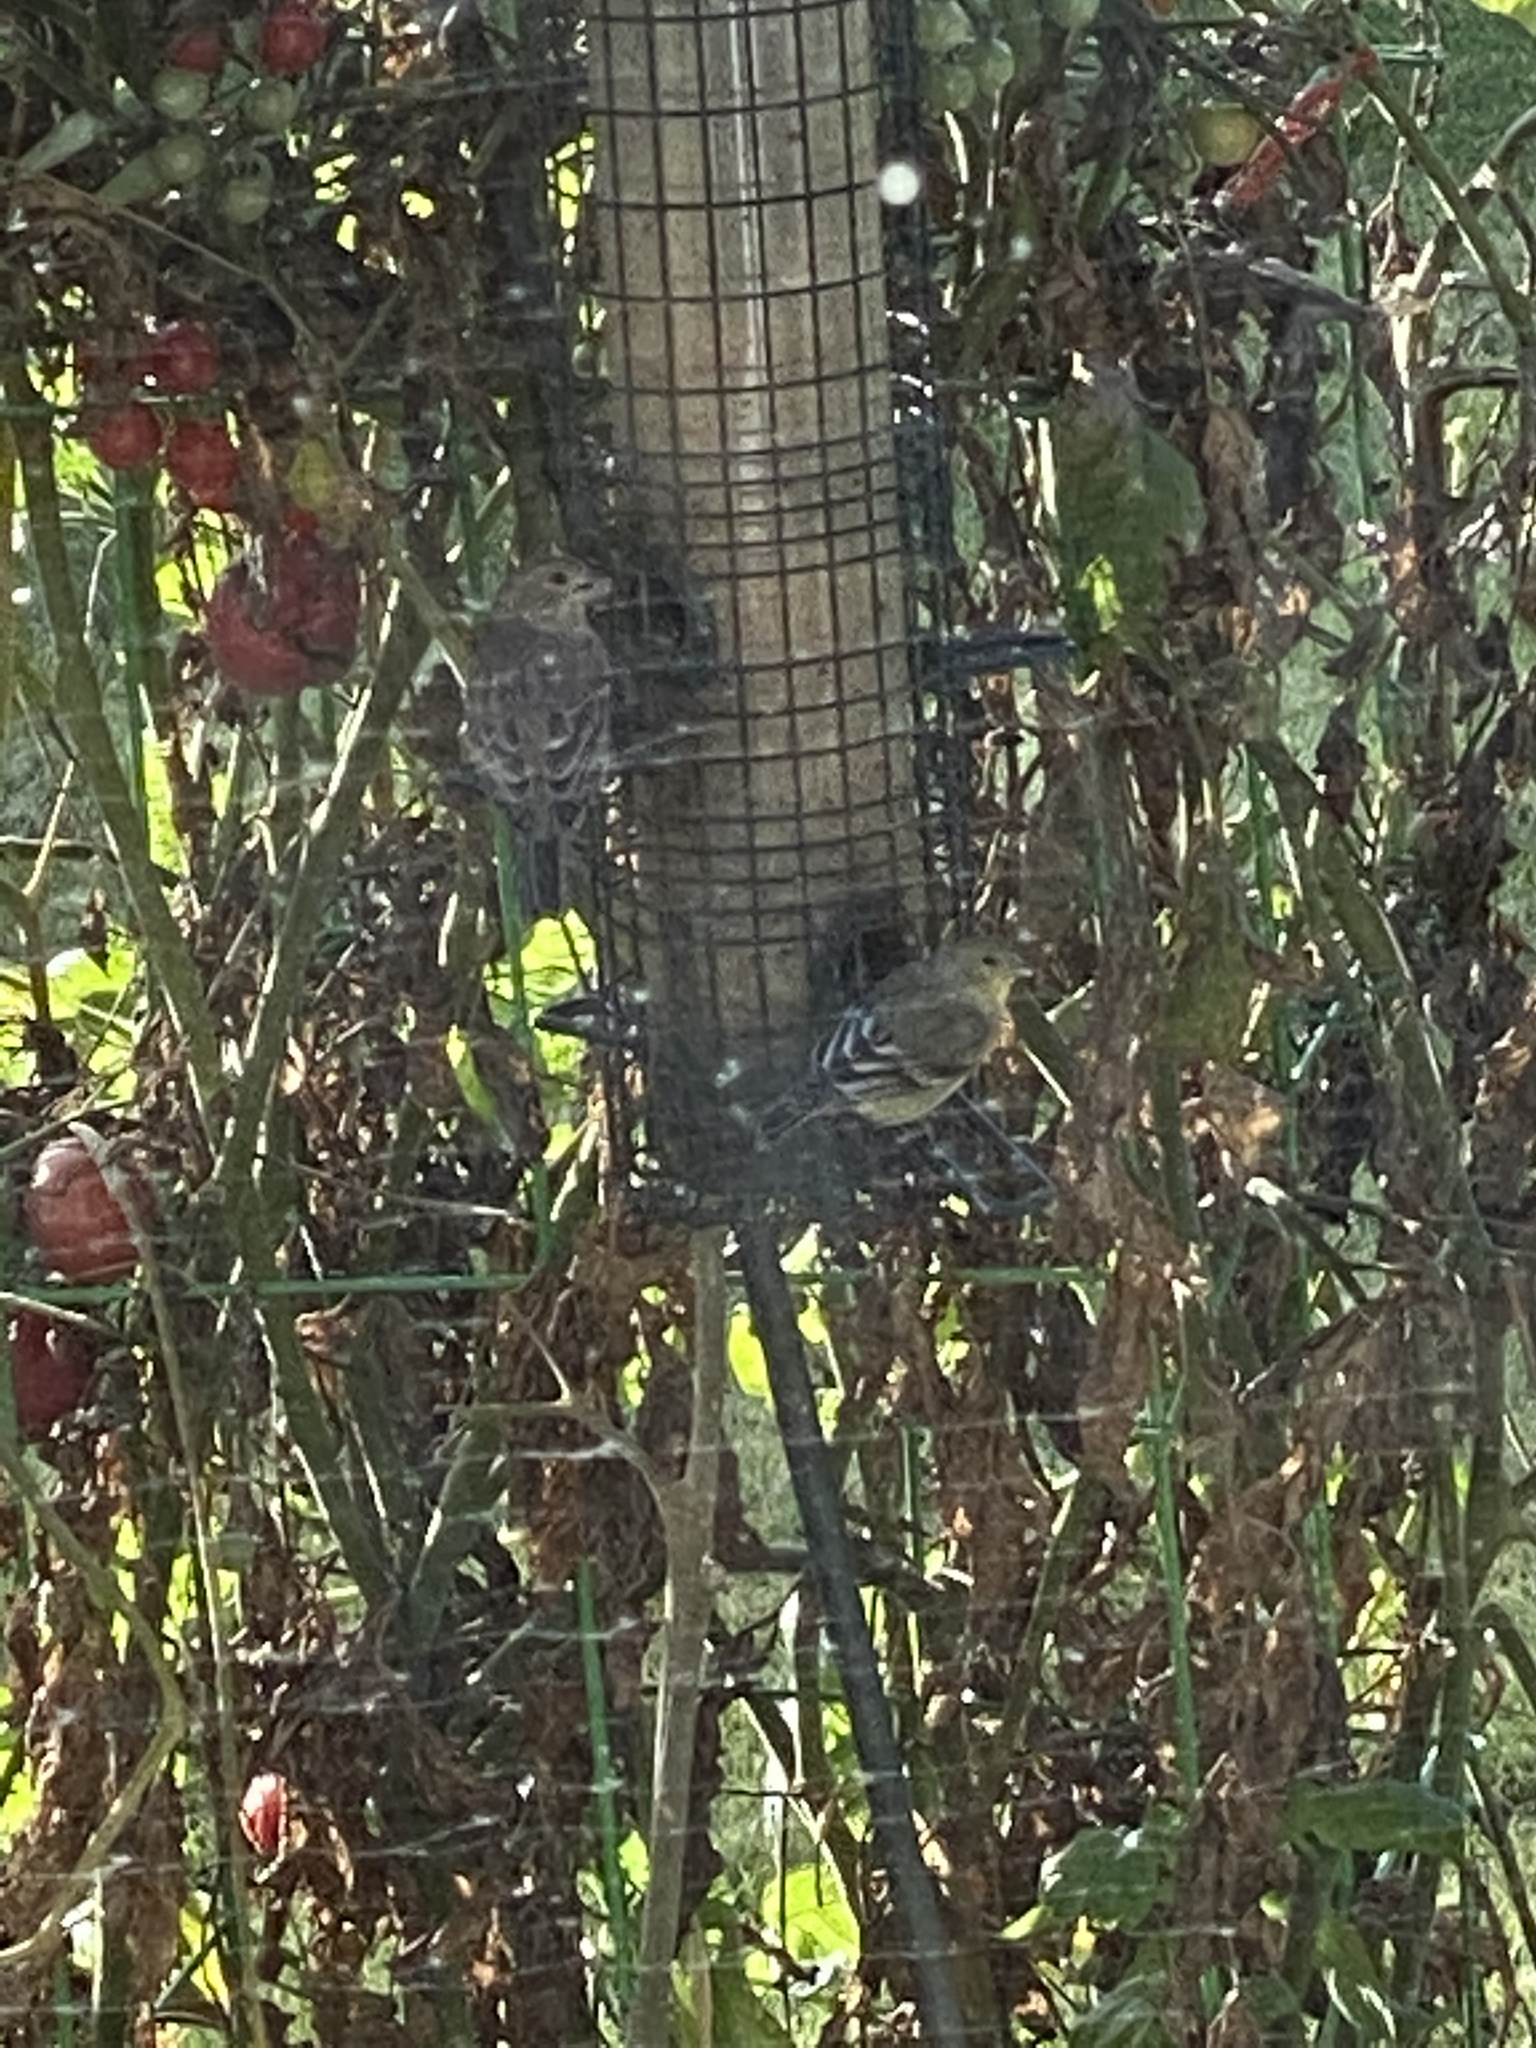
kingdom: Animalia
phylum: Chordata
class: Aves
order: Passeriformes
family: Fringillidae
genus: Spinus
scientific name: Spinus psaltria
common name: Lesser goldfinch
